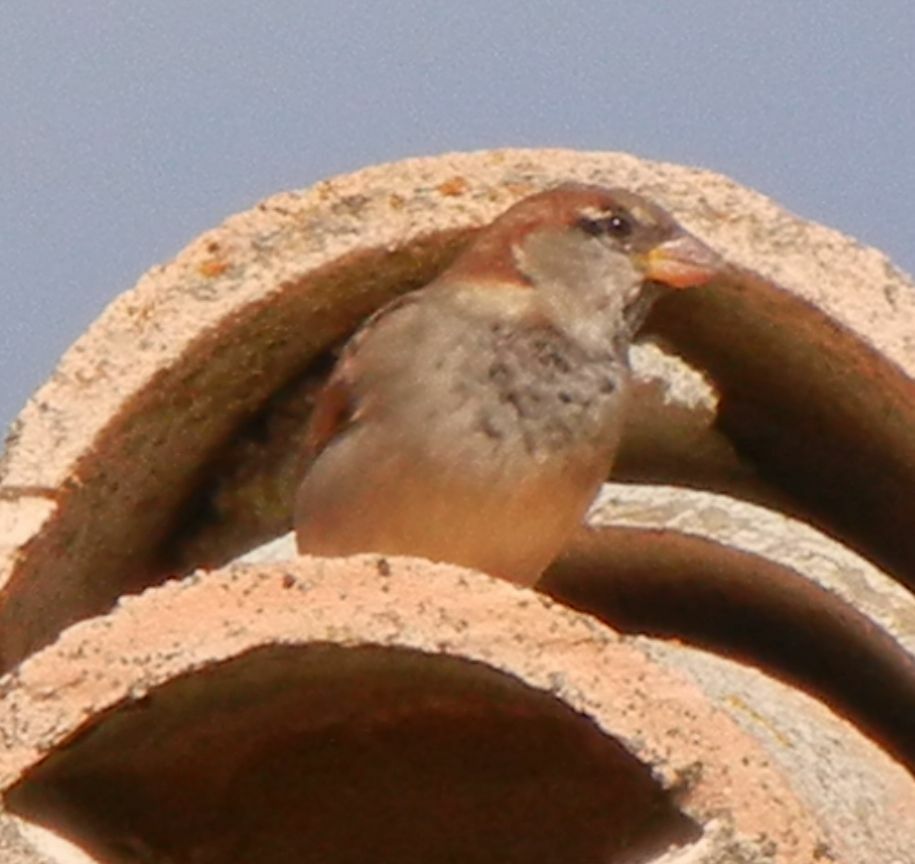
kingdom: Animalia
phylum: Chordata
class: Aves
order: Passeriformes
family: Passeridae
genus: Passer
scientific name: Passer domesticus
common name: House sparrow
